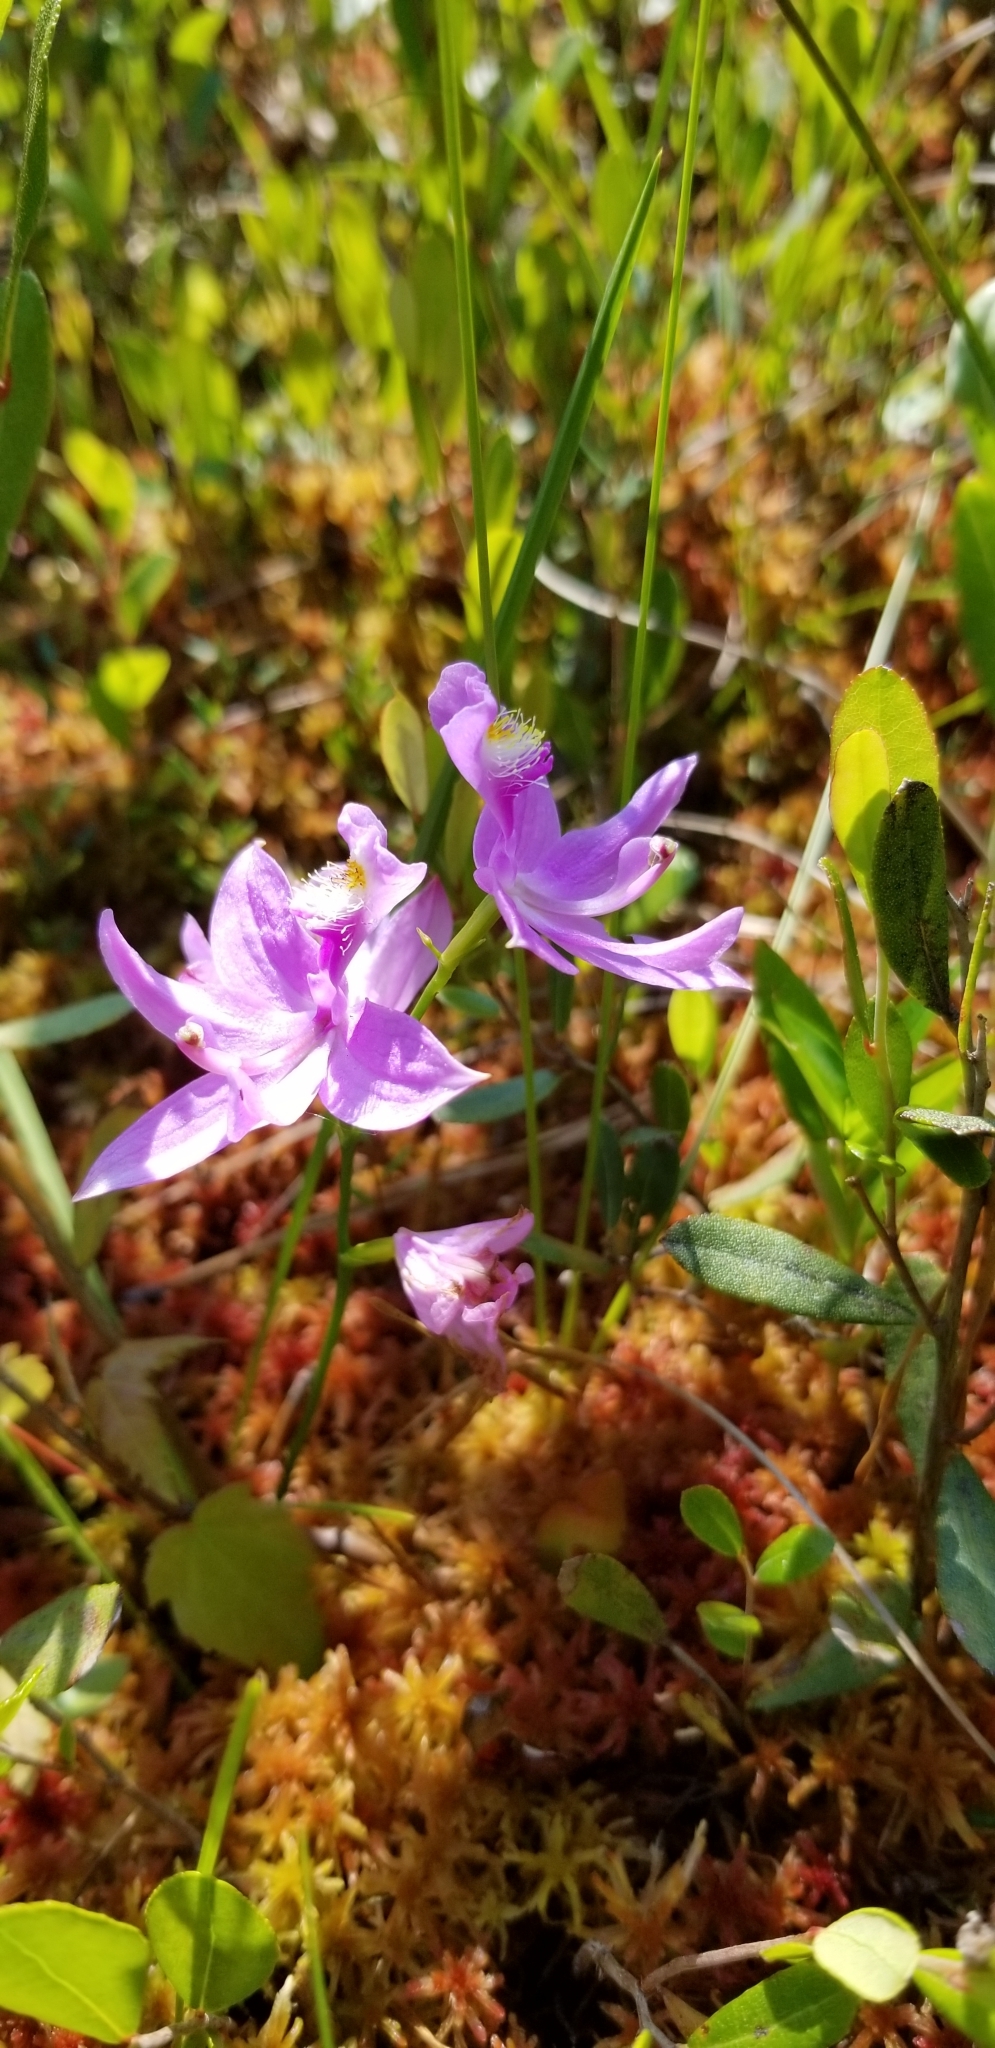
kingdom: Plantae
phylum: Tracheophyta
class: Liliopsida
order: Asparagales
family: Orchidaceae
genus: Calopogon
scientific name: Calopogon tuberosus
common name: Grass-pink
